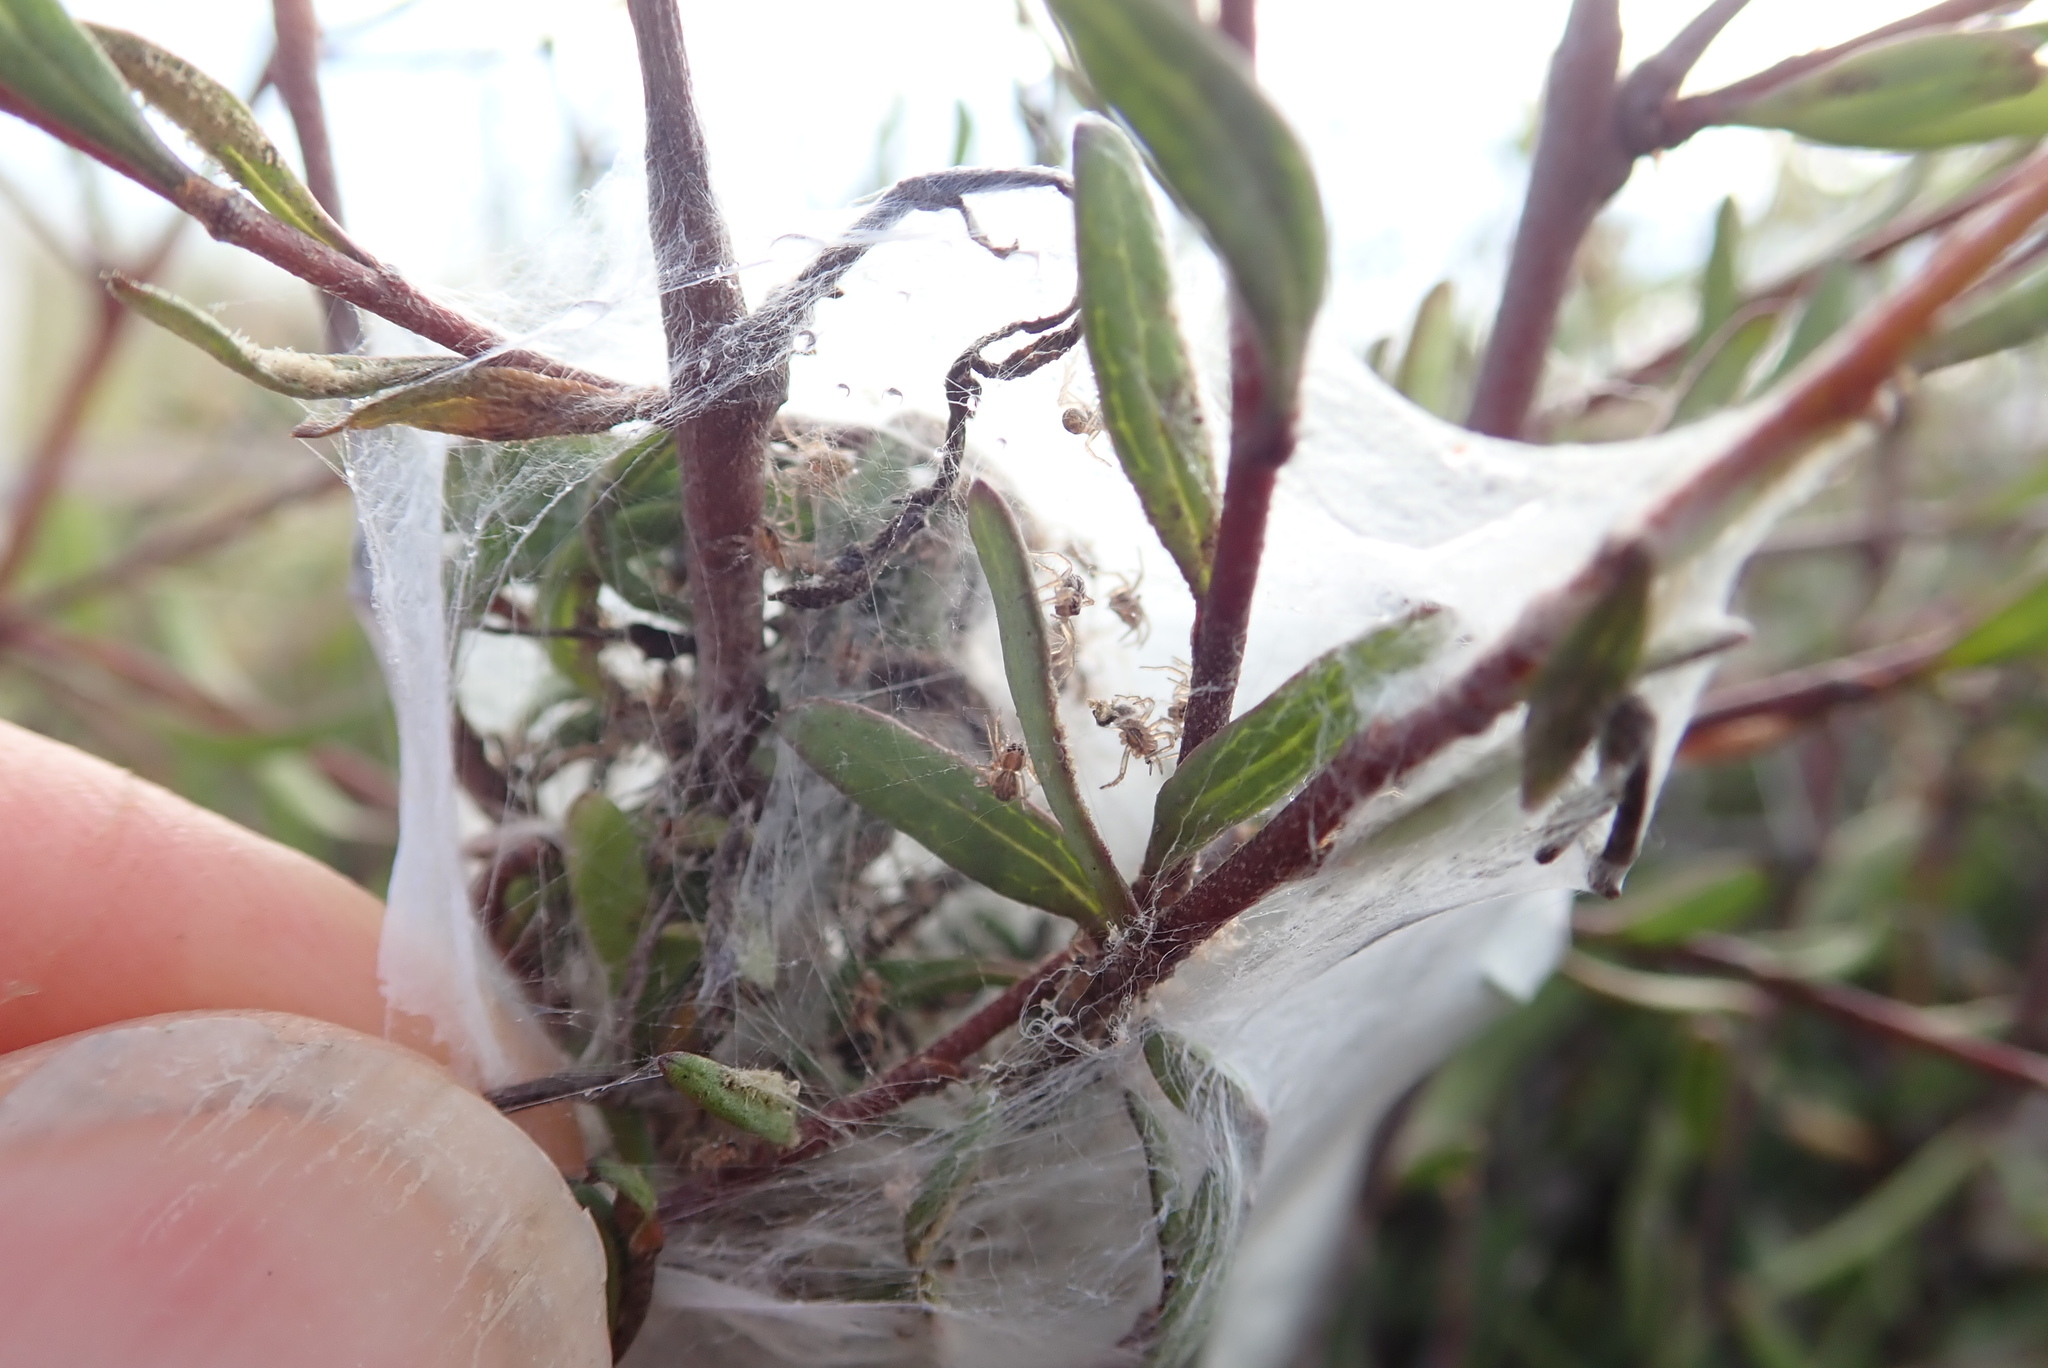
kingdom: Animalia
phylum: Arthropoda
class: Arachnida
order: Araneae
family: Pisauridae
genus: Dolomedes
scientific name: Dolomedes minor
